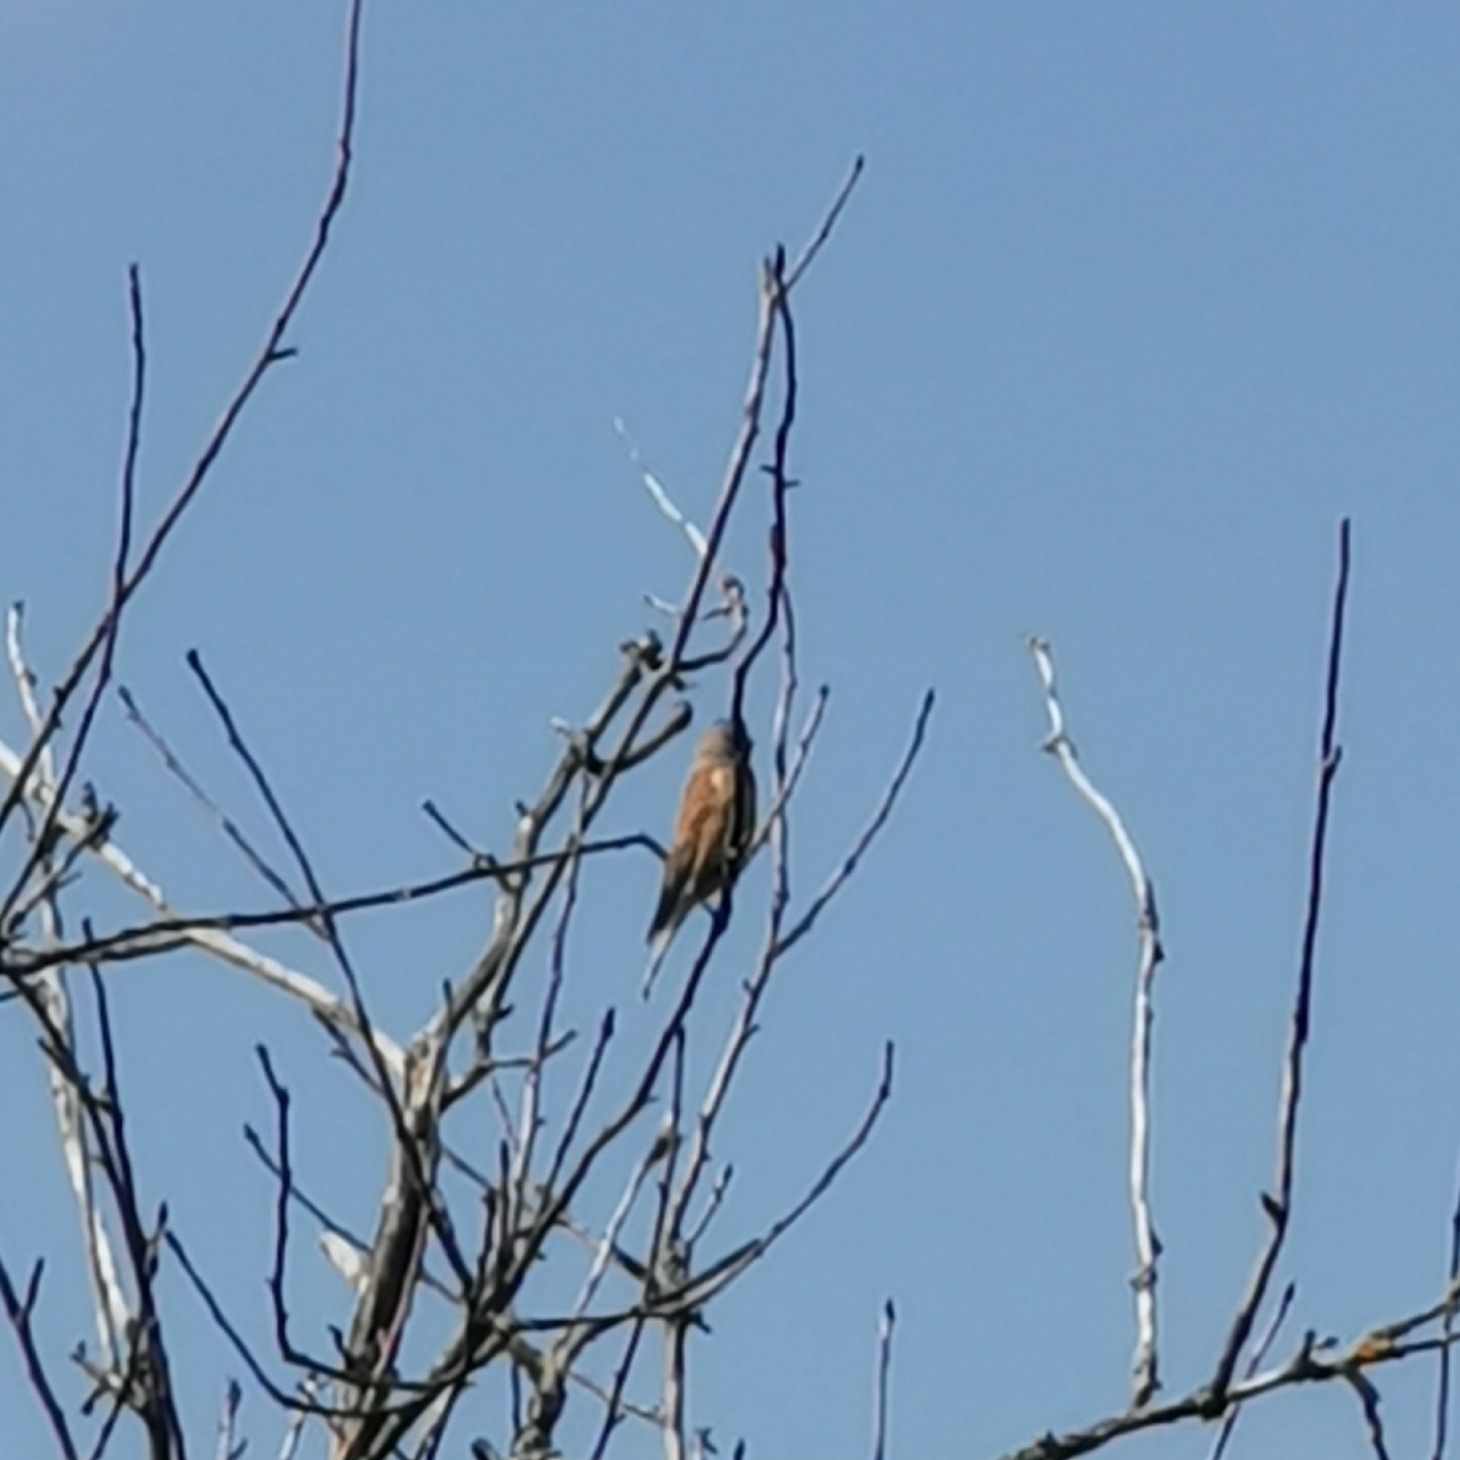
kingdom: Animalia
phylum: Chordata
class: Aves
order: Passeriformes
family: Fringillidae
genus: Linaria
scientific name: Linaria cannabina
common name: Common linnet
